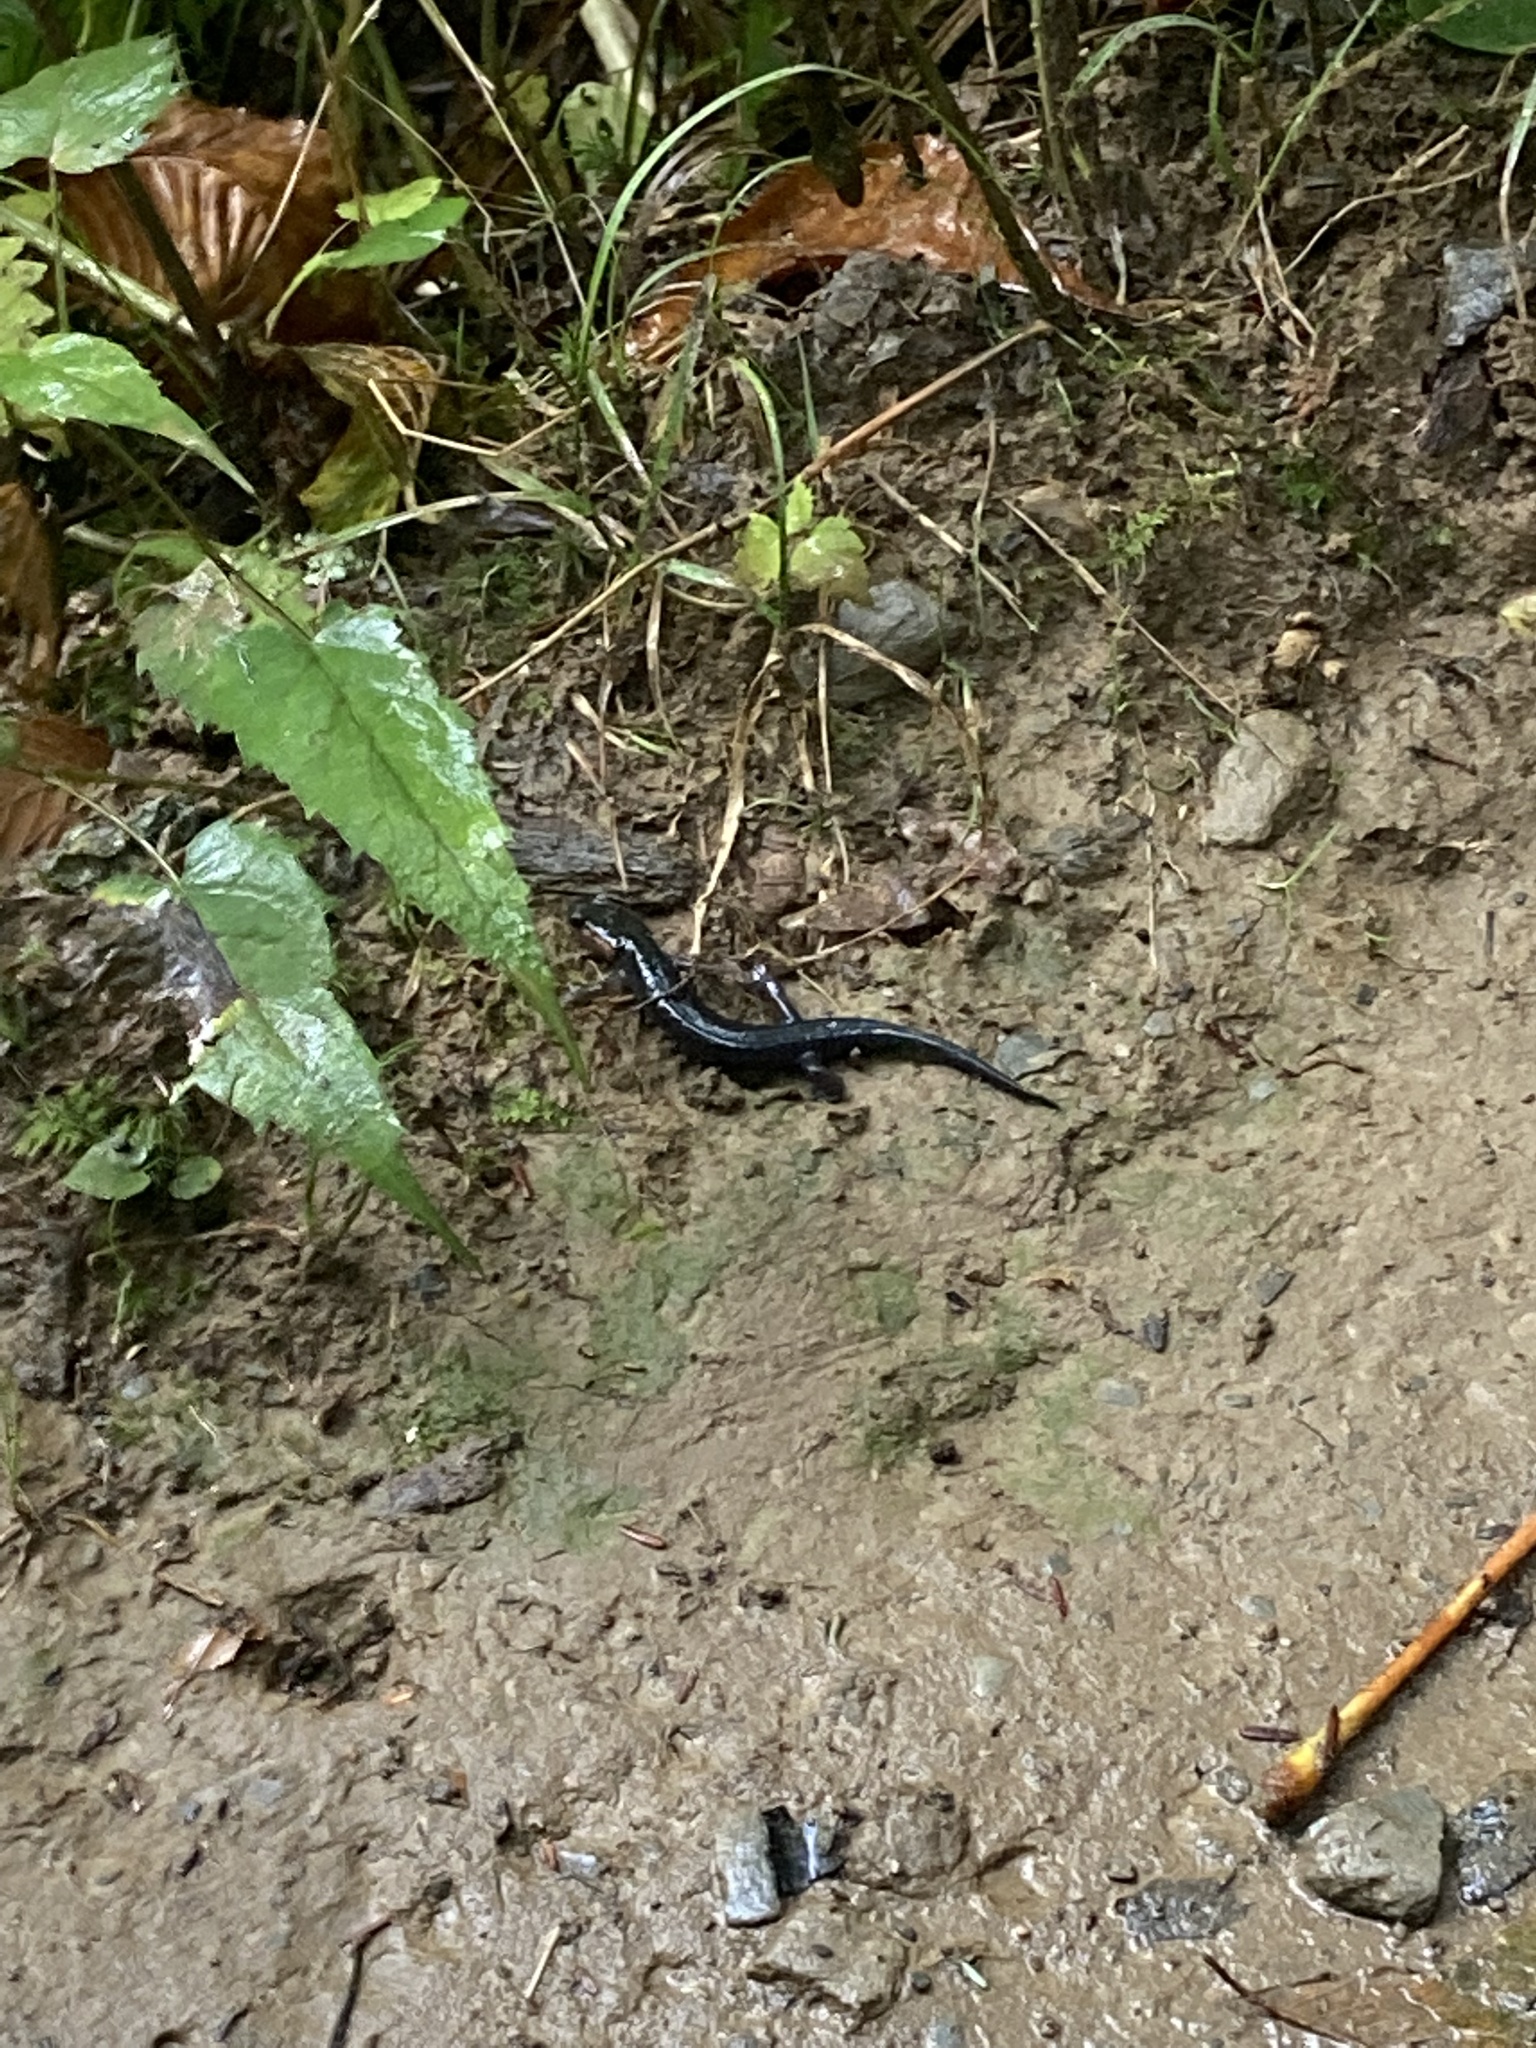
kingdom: Animalia
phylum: Chordata
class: Amphibia
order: Caudata
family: Plethodontidae
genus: Plethodon
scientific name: Plethodon jordani
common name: Red-cheeked salamander
